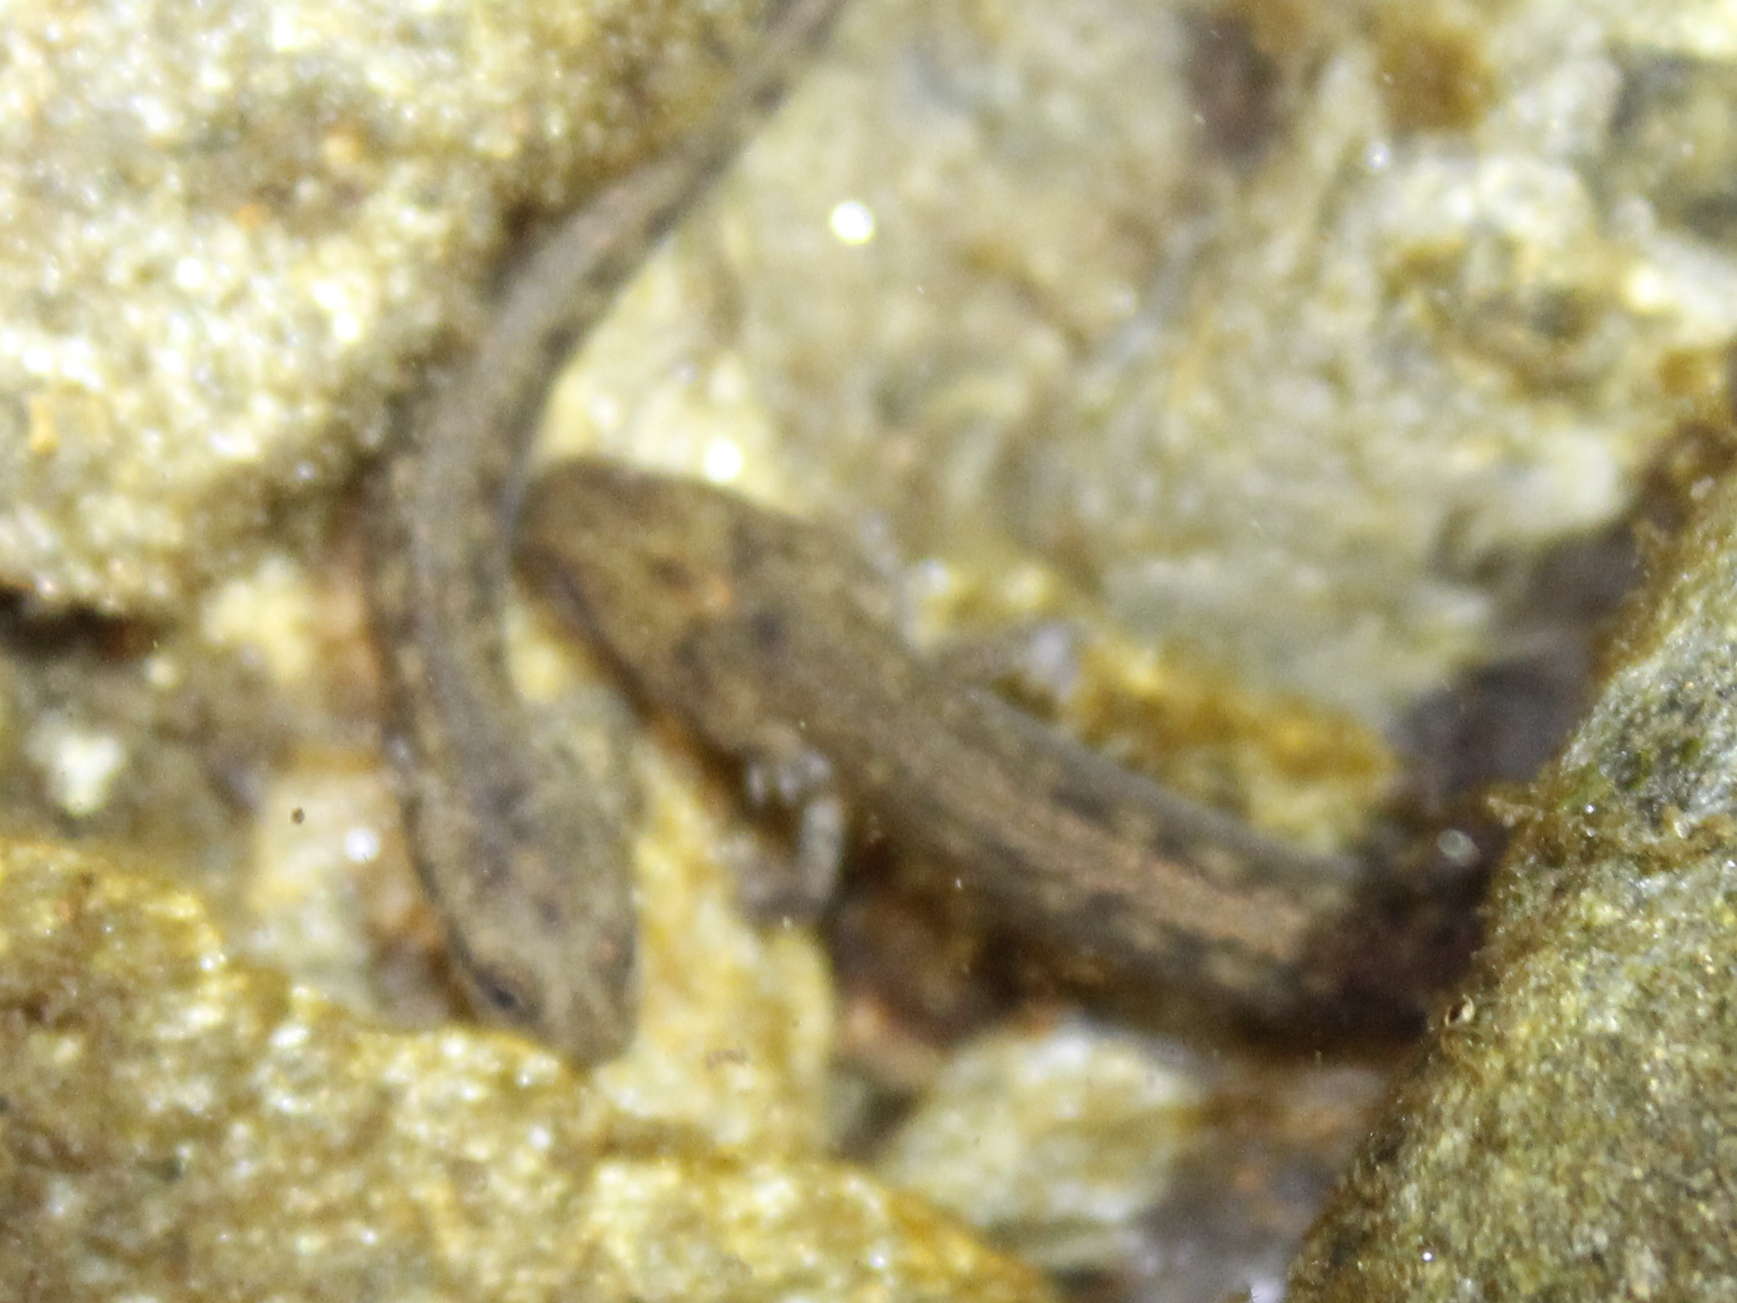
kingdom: Animalia
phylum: Chordata
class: Amphibia
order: Caudata
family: Plethodontidae
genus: Eurycea
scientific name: Eurycea bislineata
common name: Northern two-lined salamander
